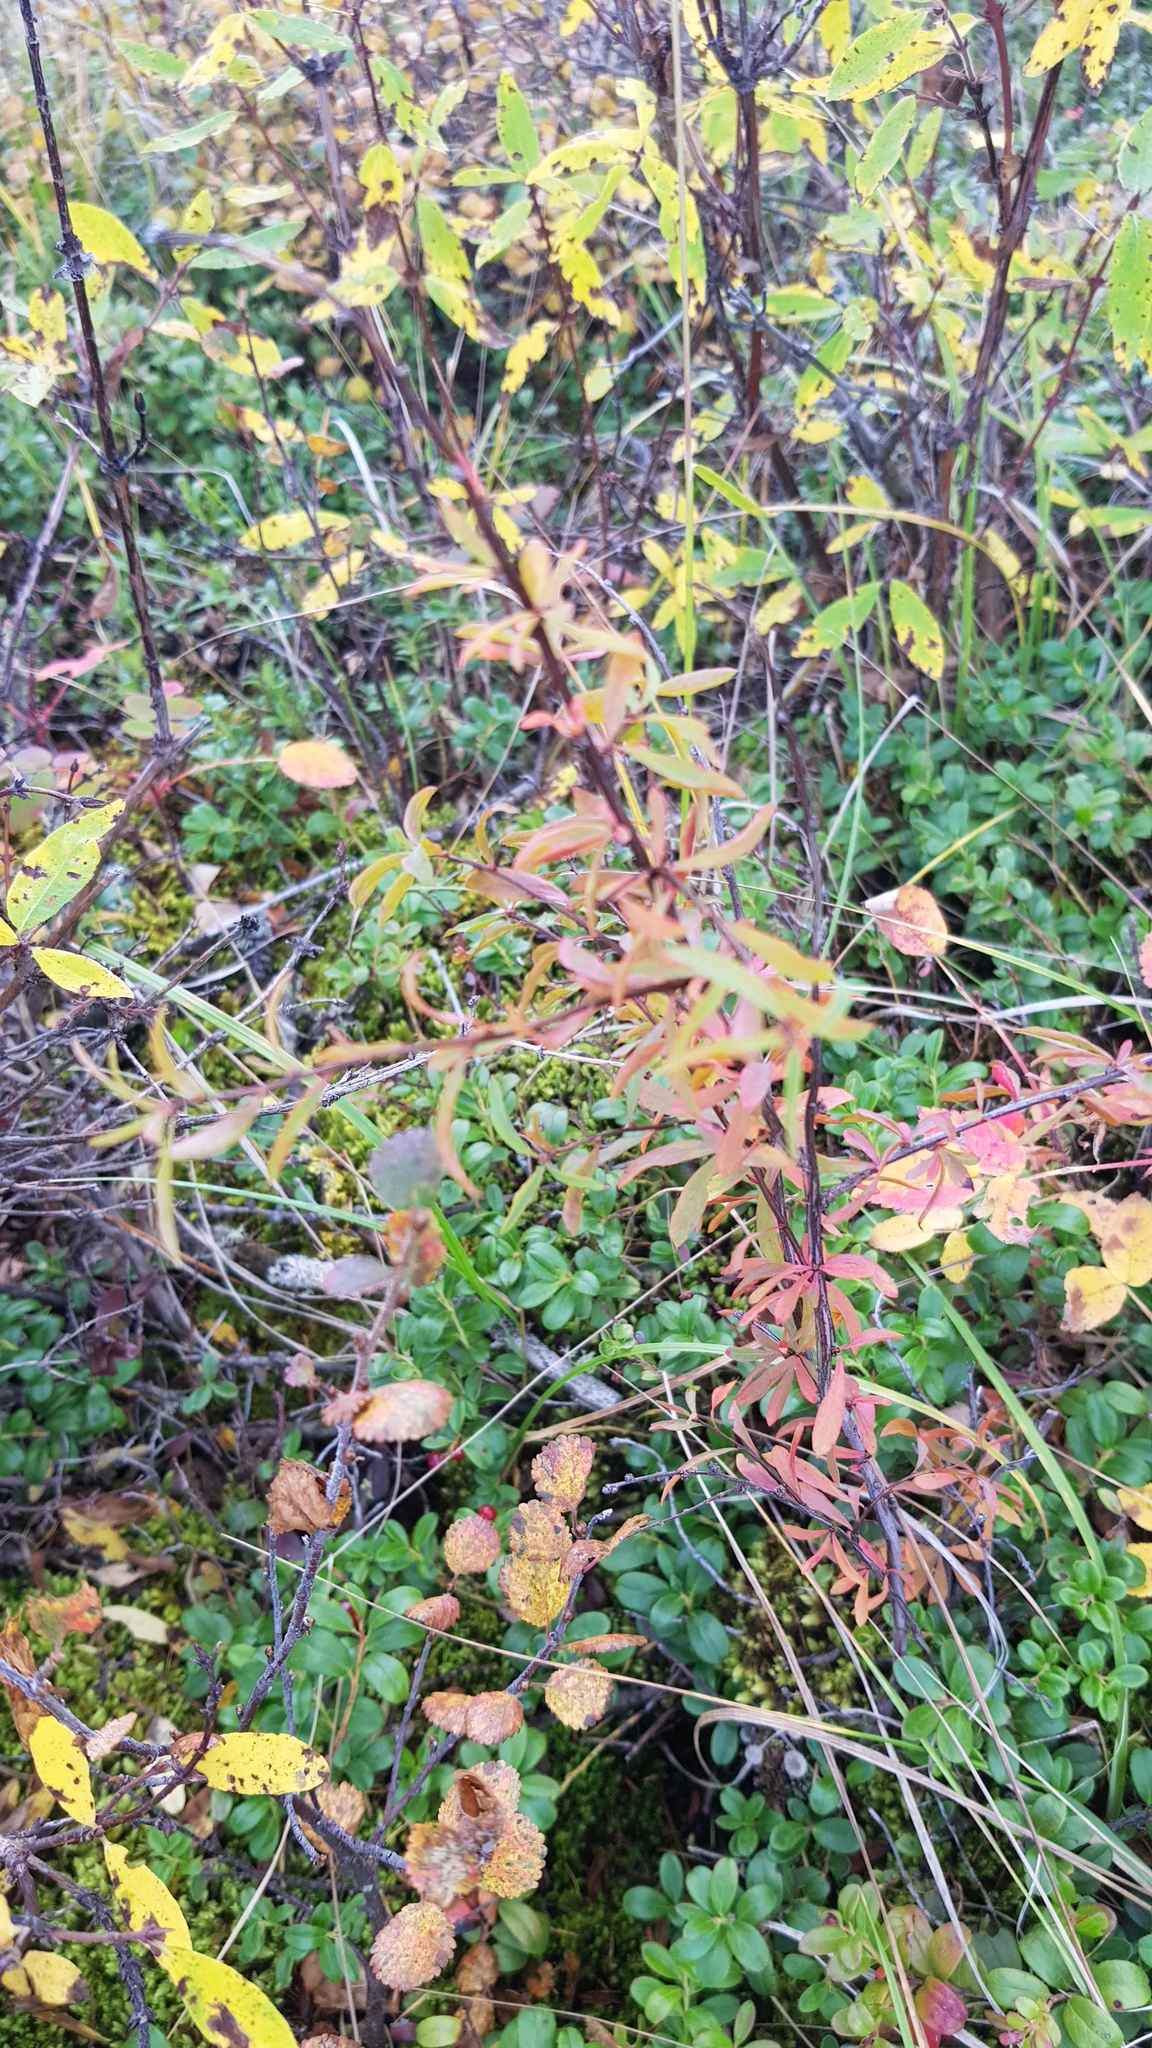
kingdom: Plantae
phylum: Tracheophyta
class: Magnoliopsida
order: Rosales
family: Rosaceae
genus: Spiraea
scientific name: Spiraea alpina
